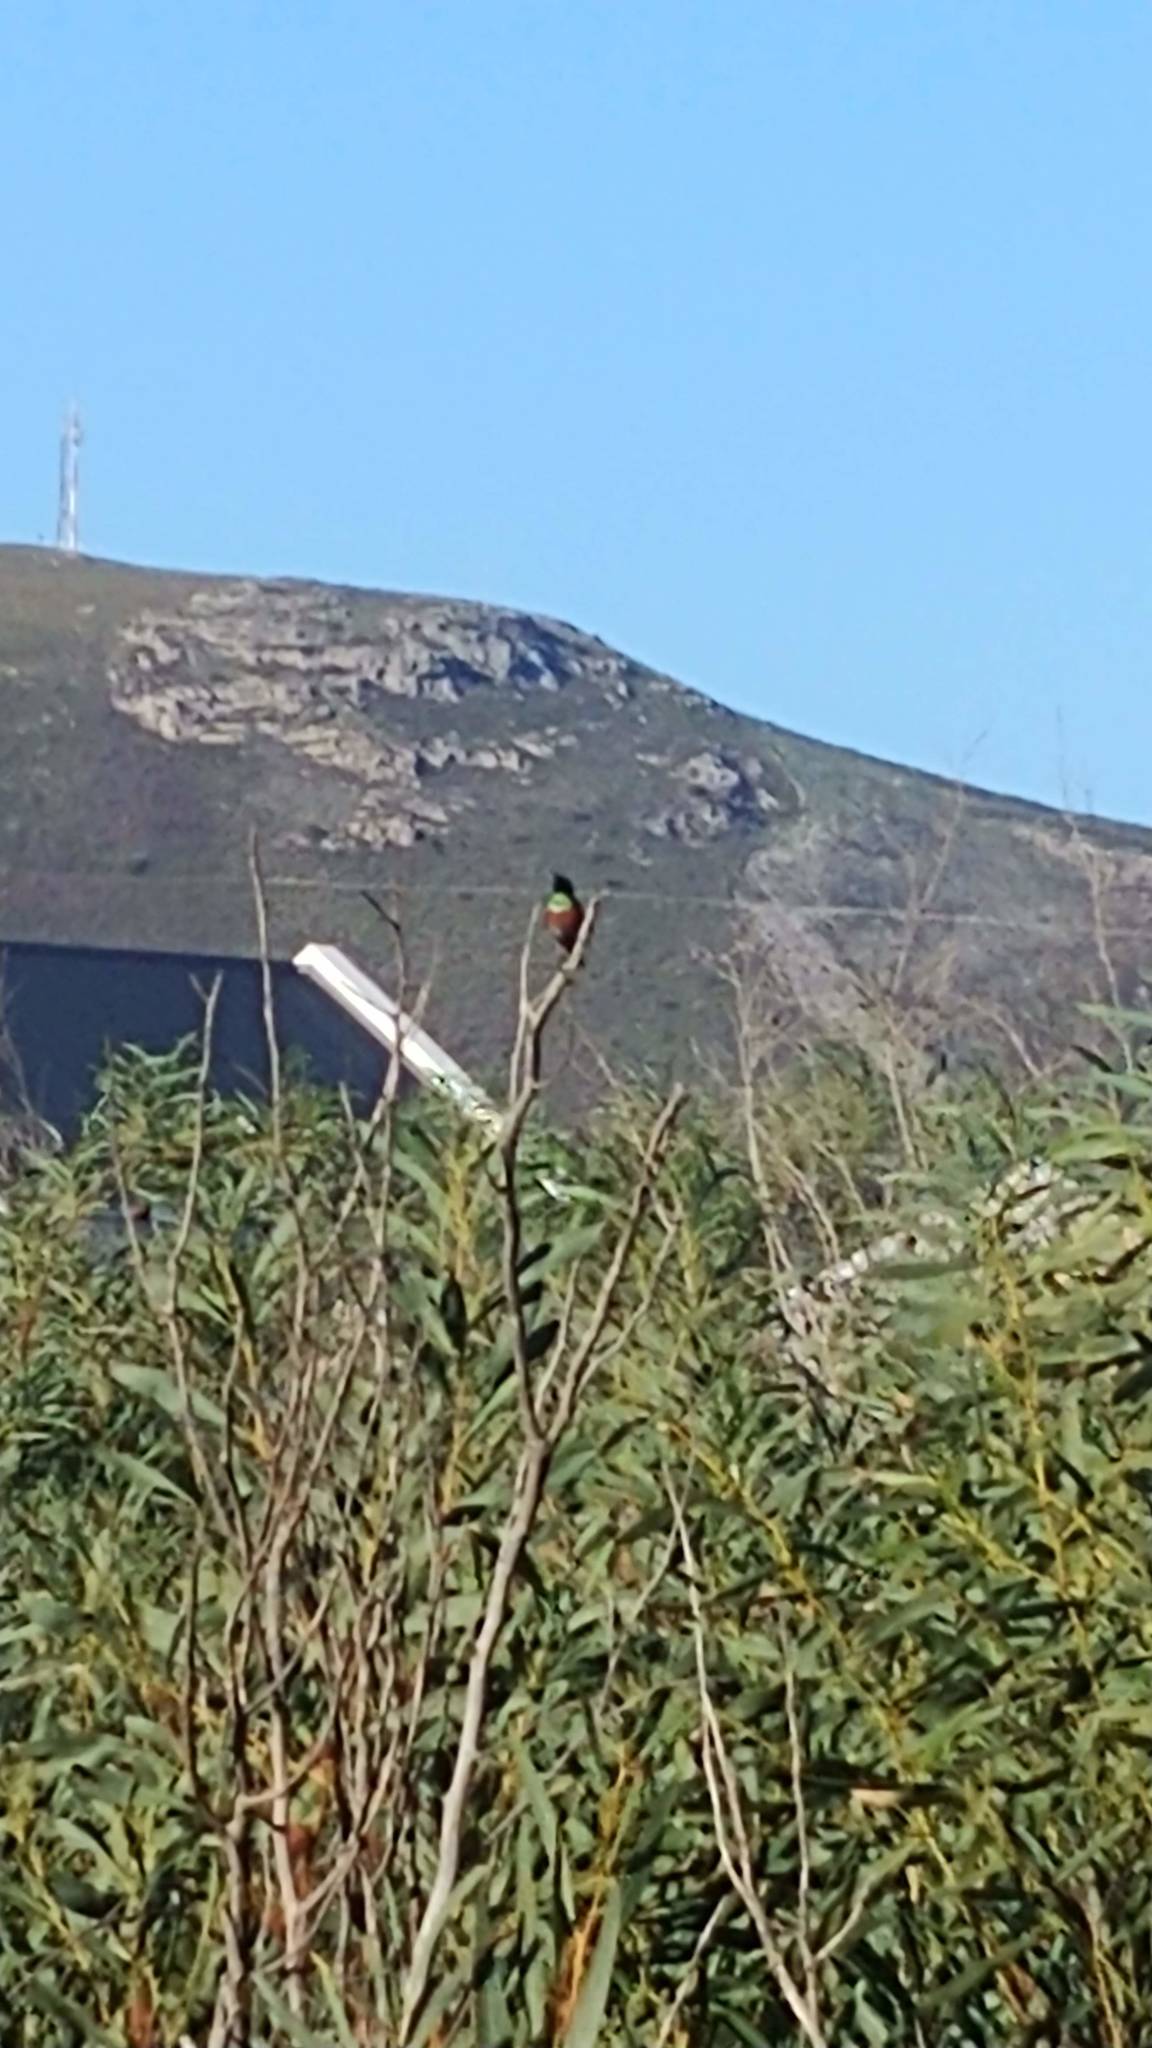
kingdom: Animalia
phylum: Chordata
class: Aves
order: Passeriformes
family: Nectariniidae
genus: Cinnyris
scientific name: Cinnyris chalybeus
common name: Southern double-collared sunbird
